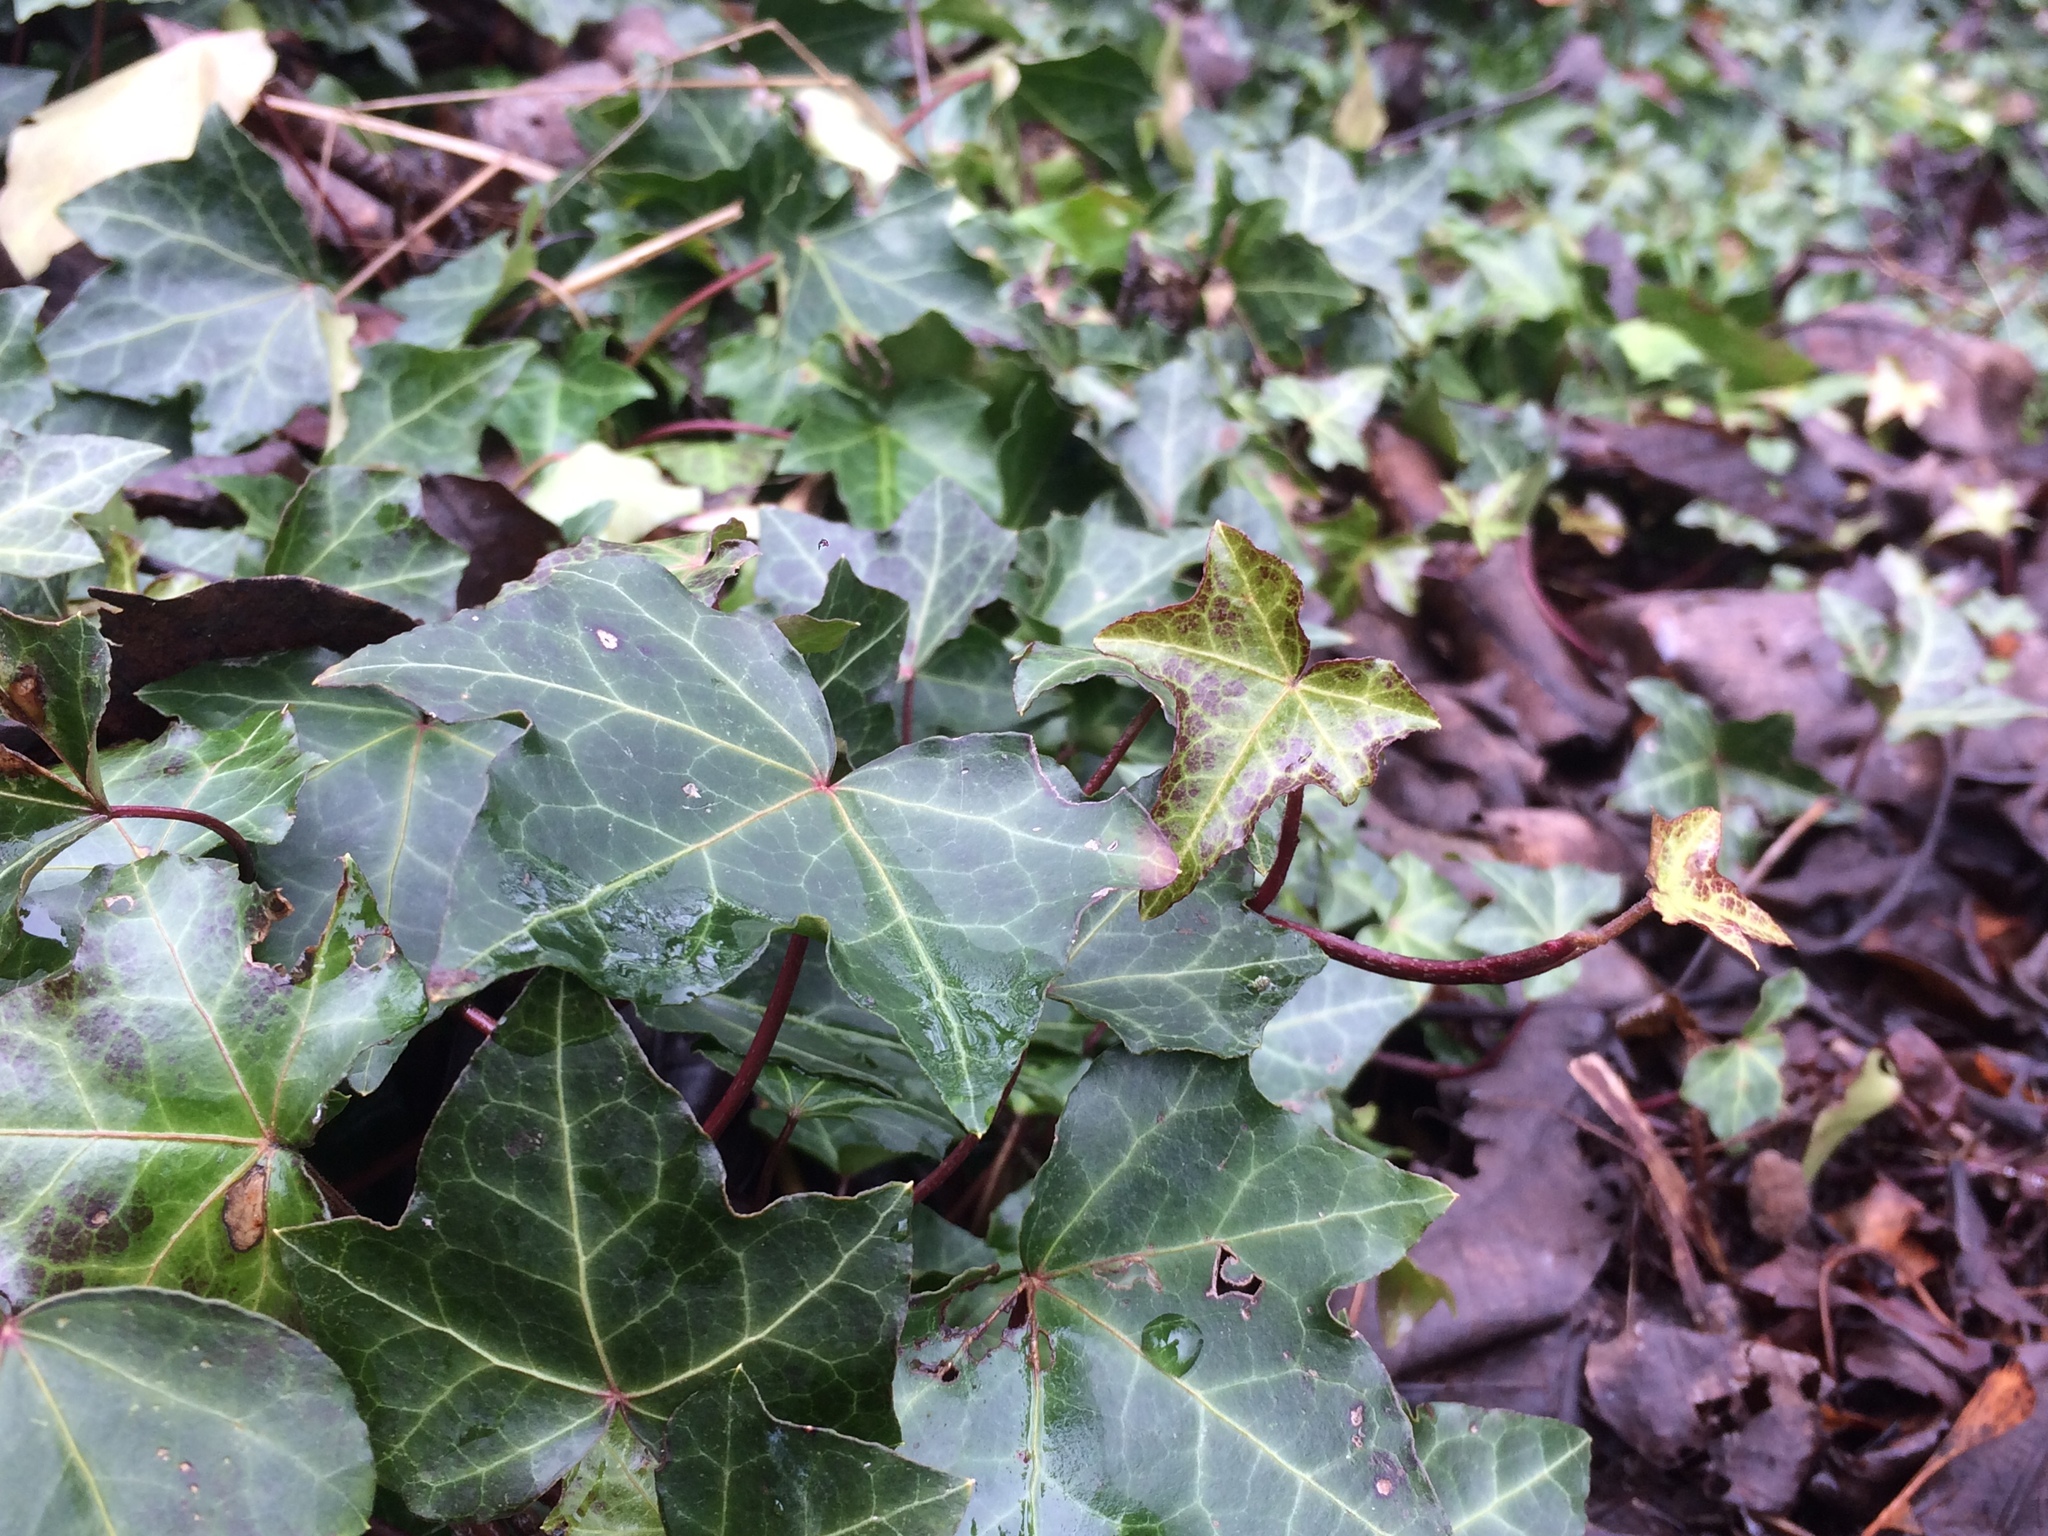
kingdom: Plantae
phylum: Tracheophyta
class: Magnoliopsida
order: Apiales
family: Araliaceae
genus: Hedera
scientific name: Hedera helix
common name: Ivy
